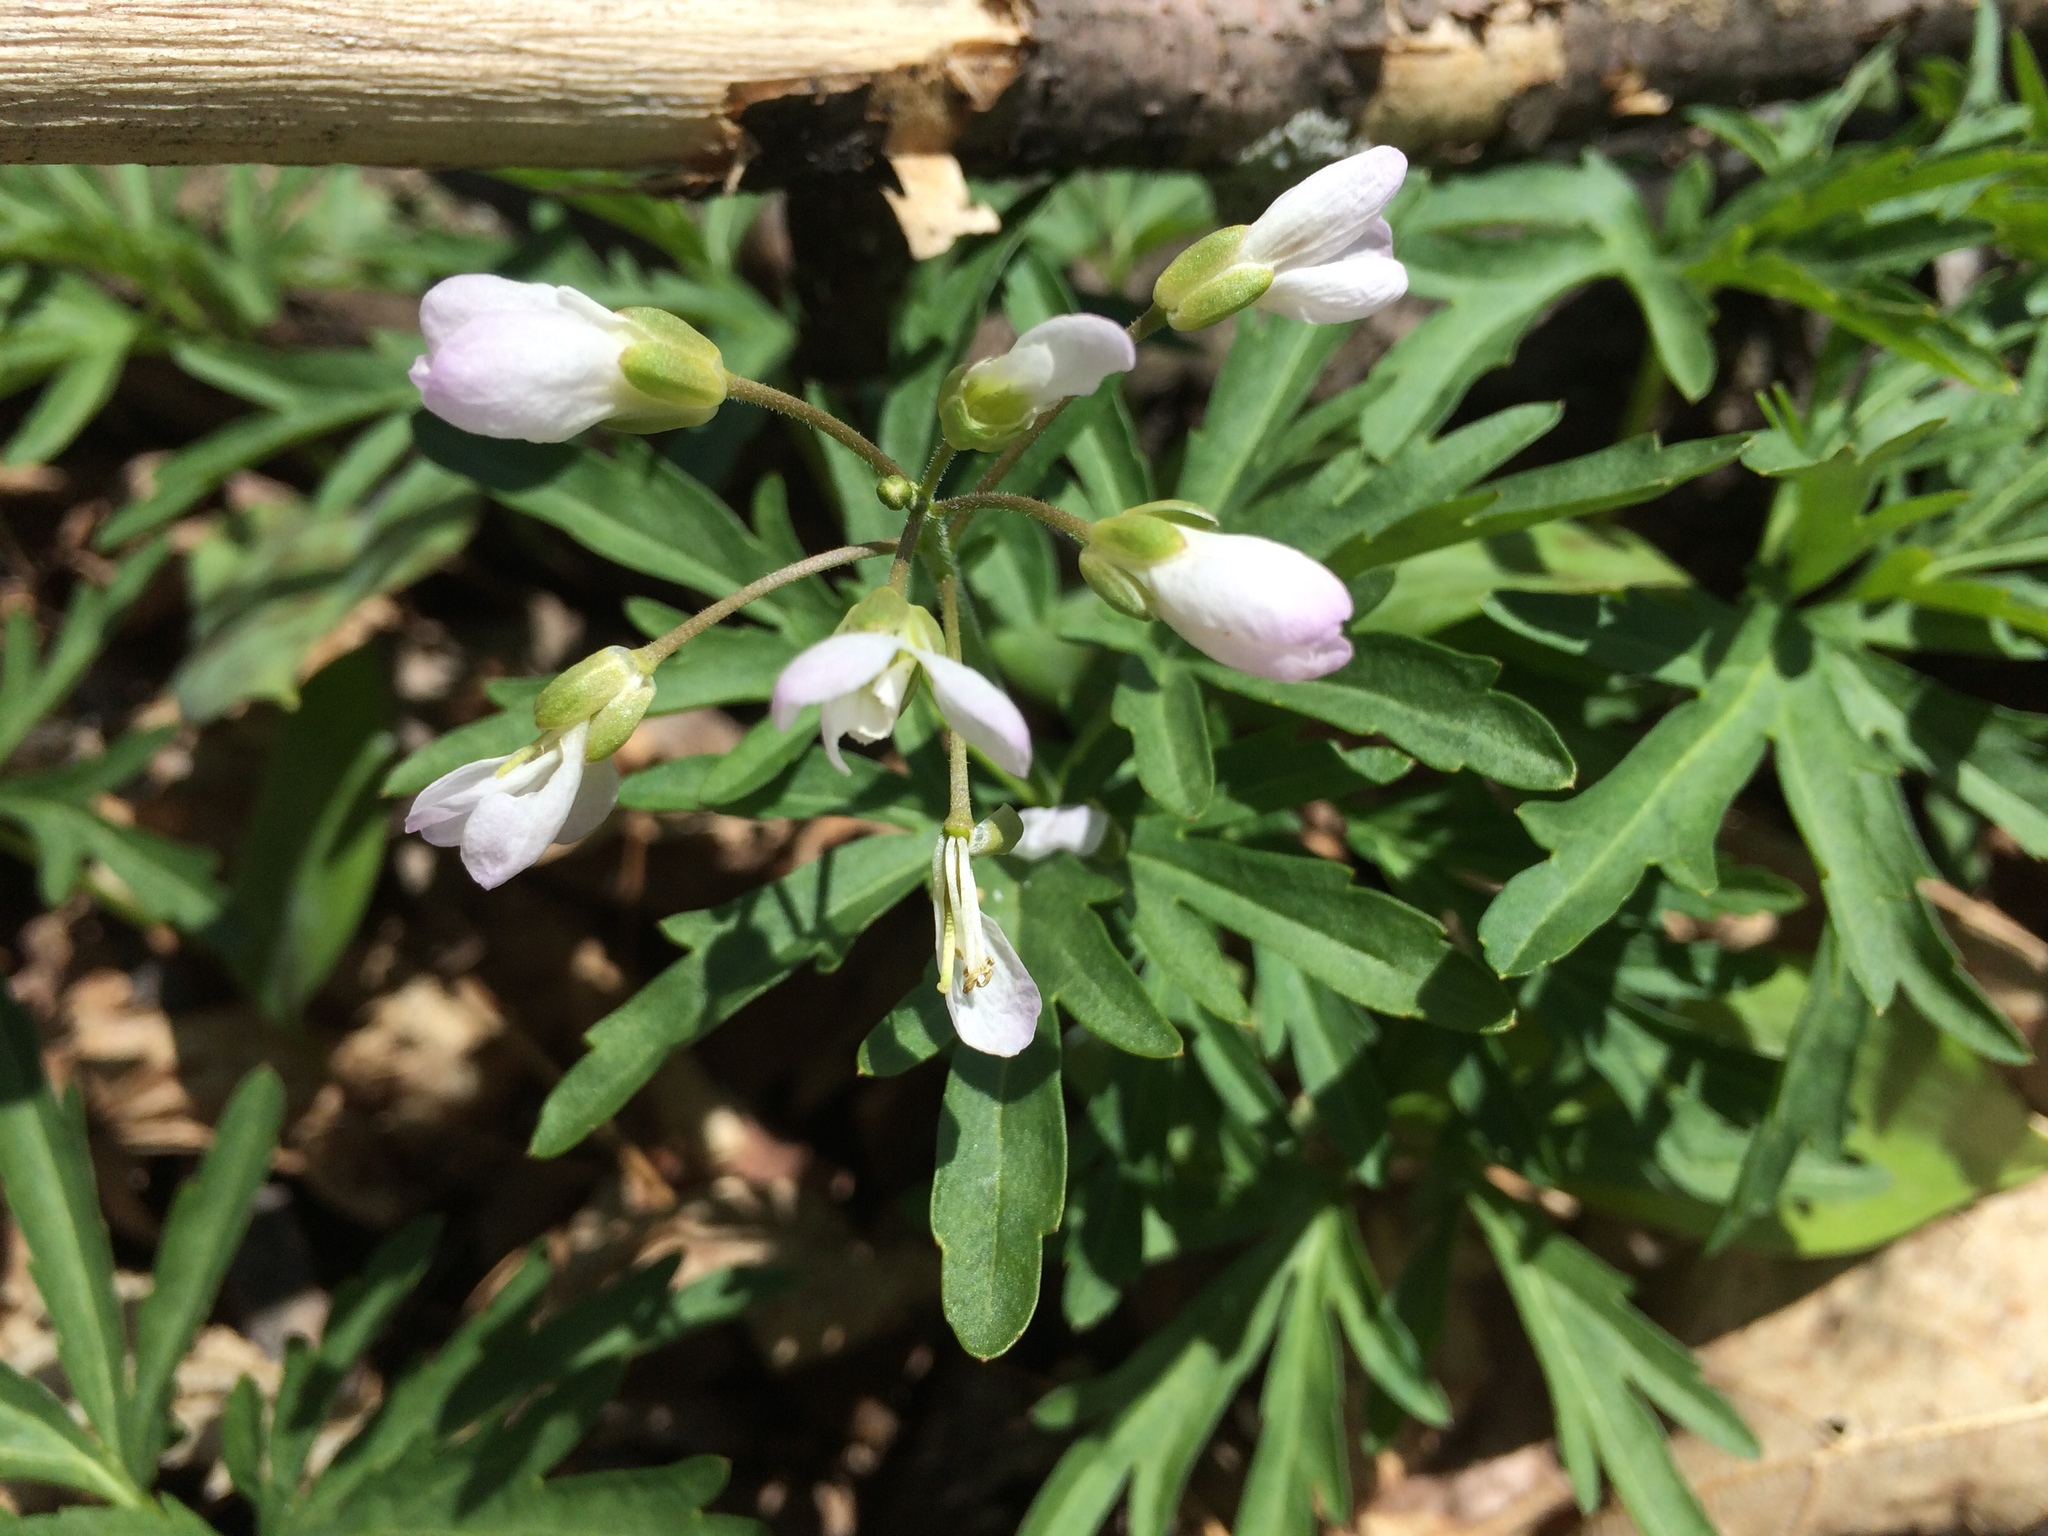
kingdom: Plantae
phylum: Tracheophyta
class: Magnoliopsida
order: Brassicales
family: Brassicaceae
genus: Cardamine
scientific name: Cardamine concatenata
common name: Cut-leaf toothcup
